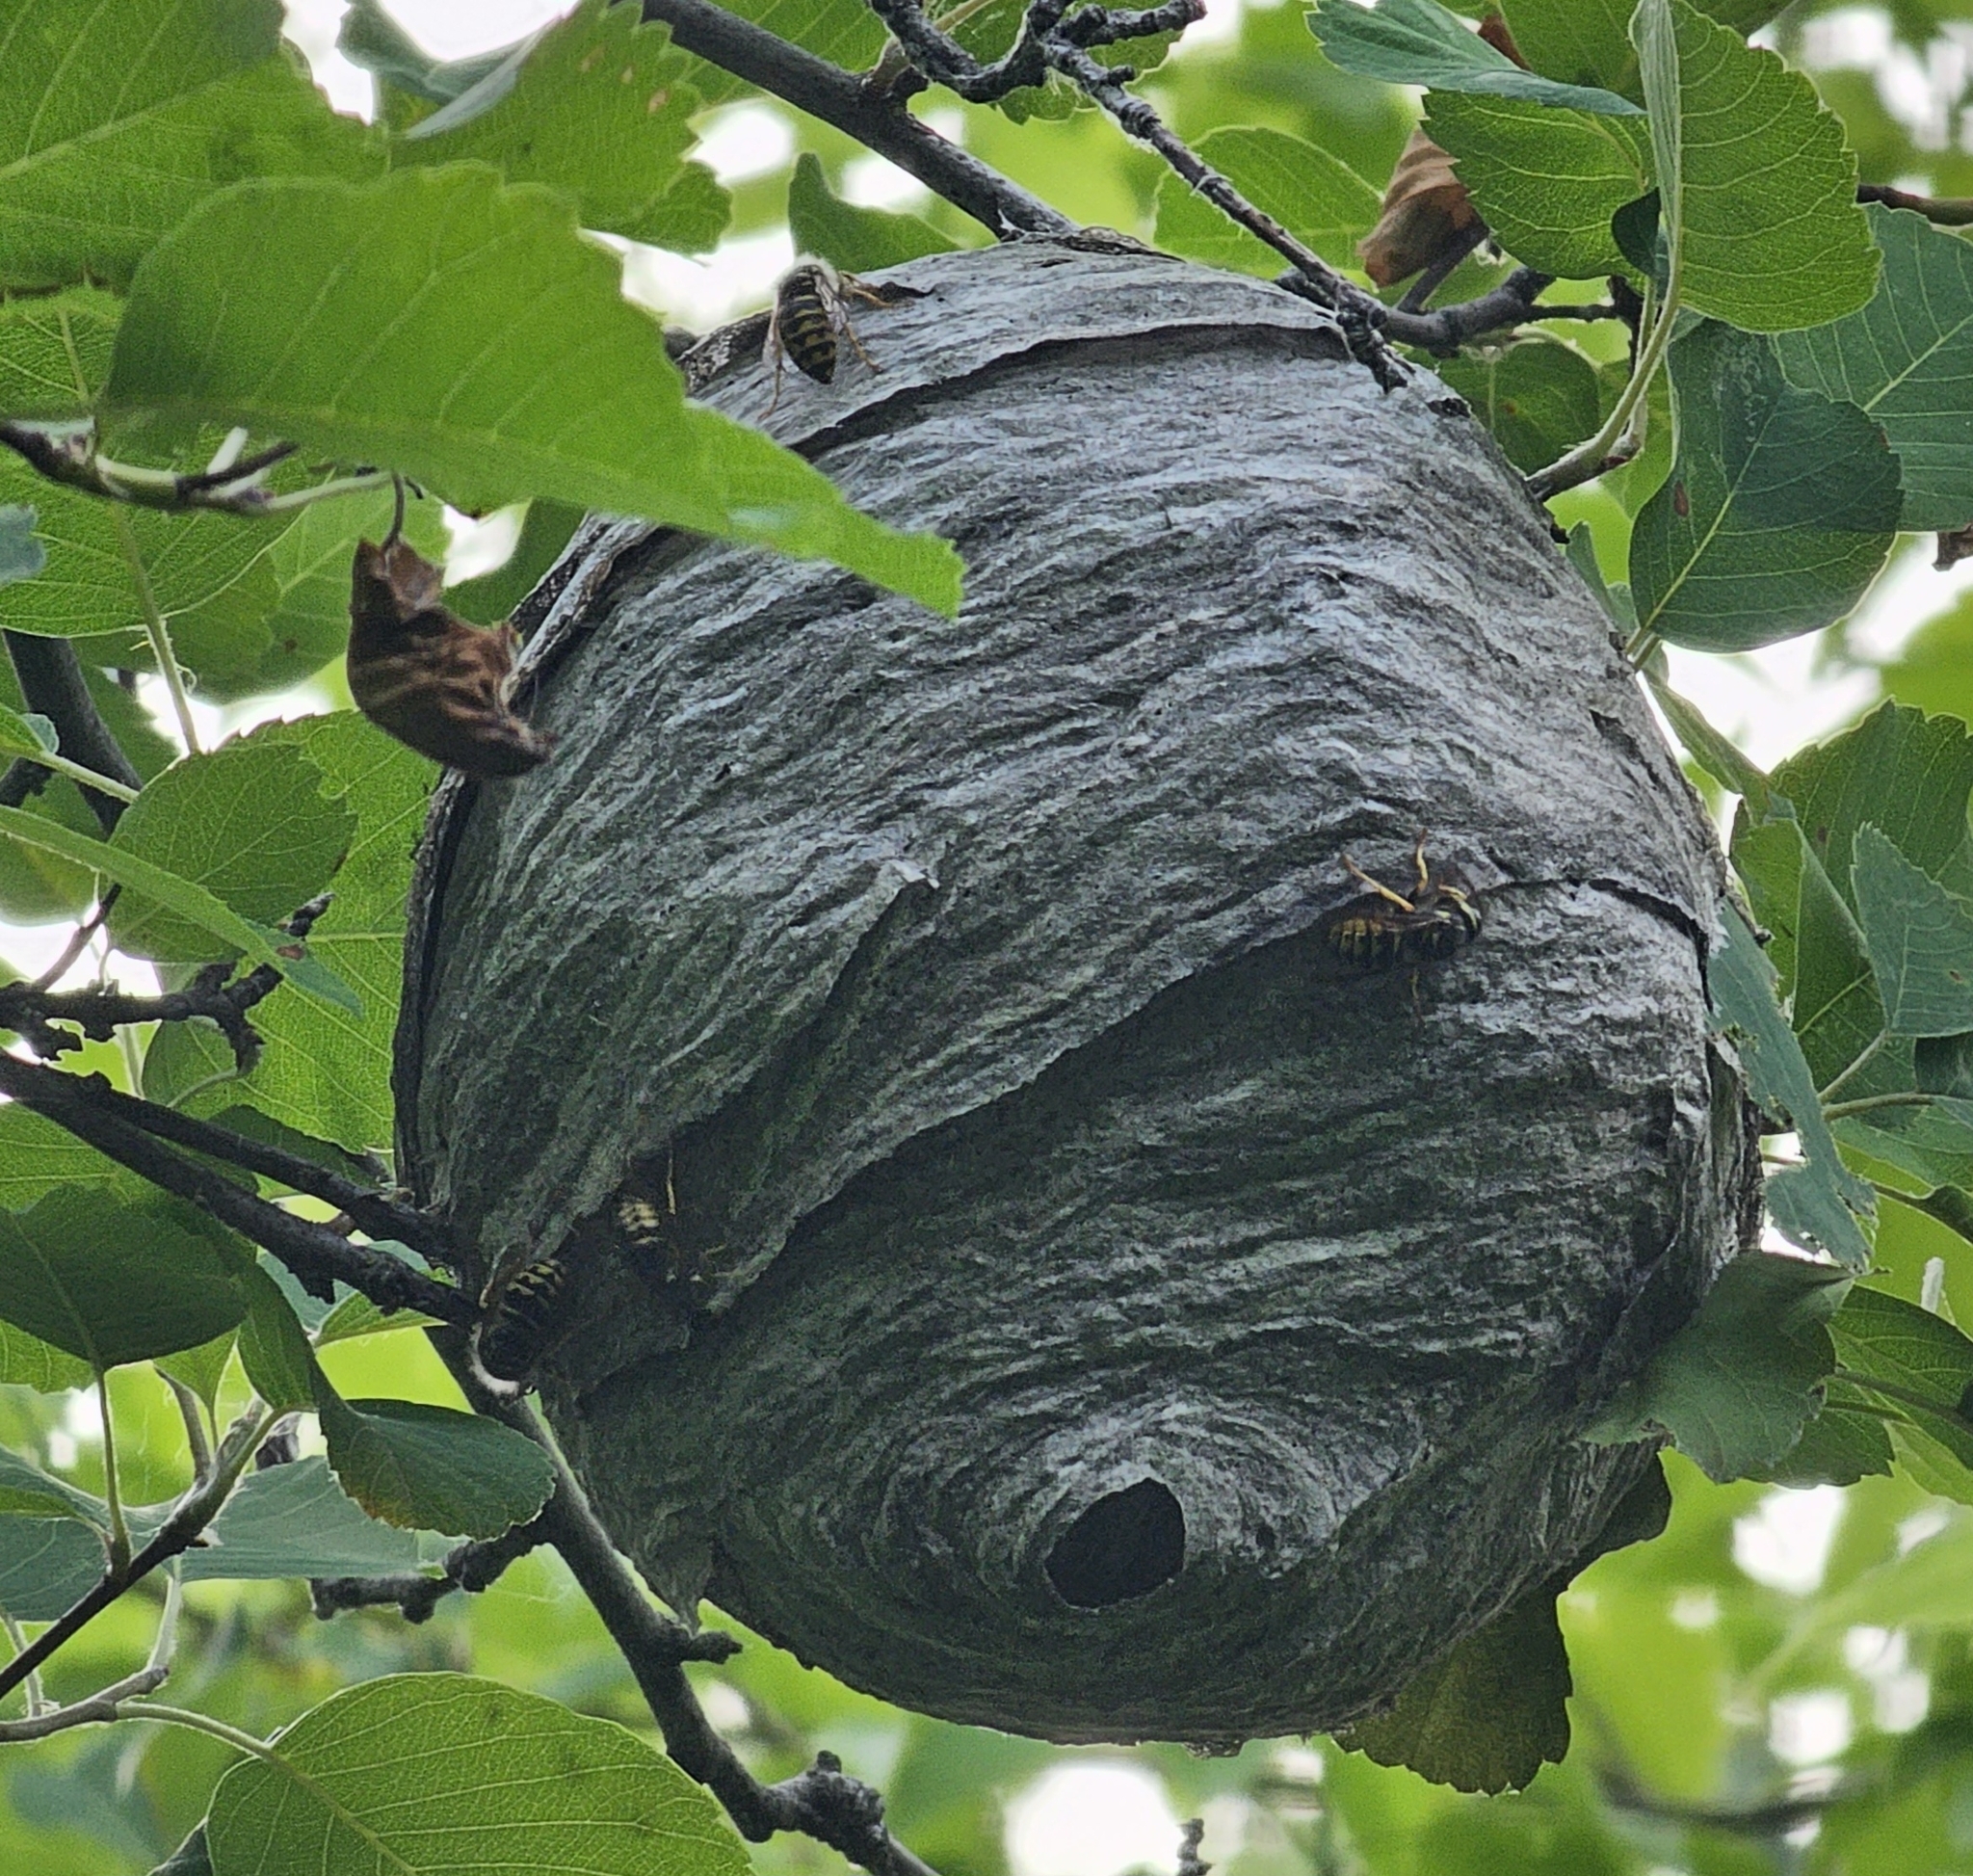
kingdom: Animalia
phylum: Arthropoda
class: Insecta
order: Hymenoptera
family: Vespidae
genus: Dolichovespula
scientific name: Dolichovespula arenaria
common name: Aerial yellowjacket
